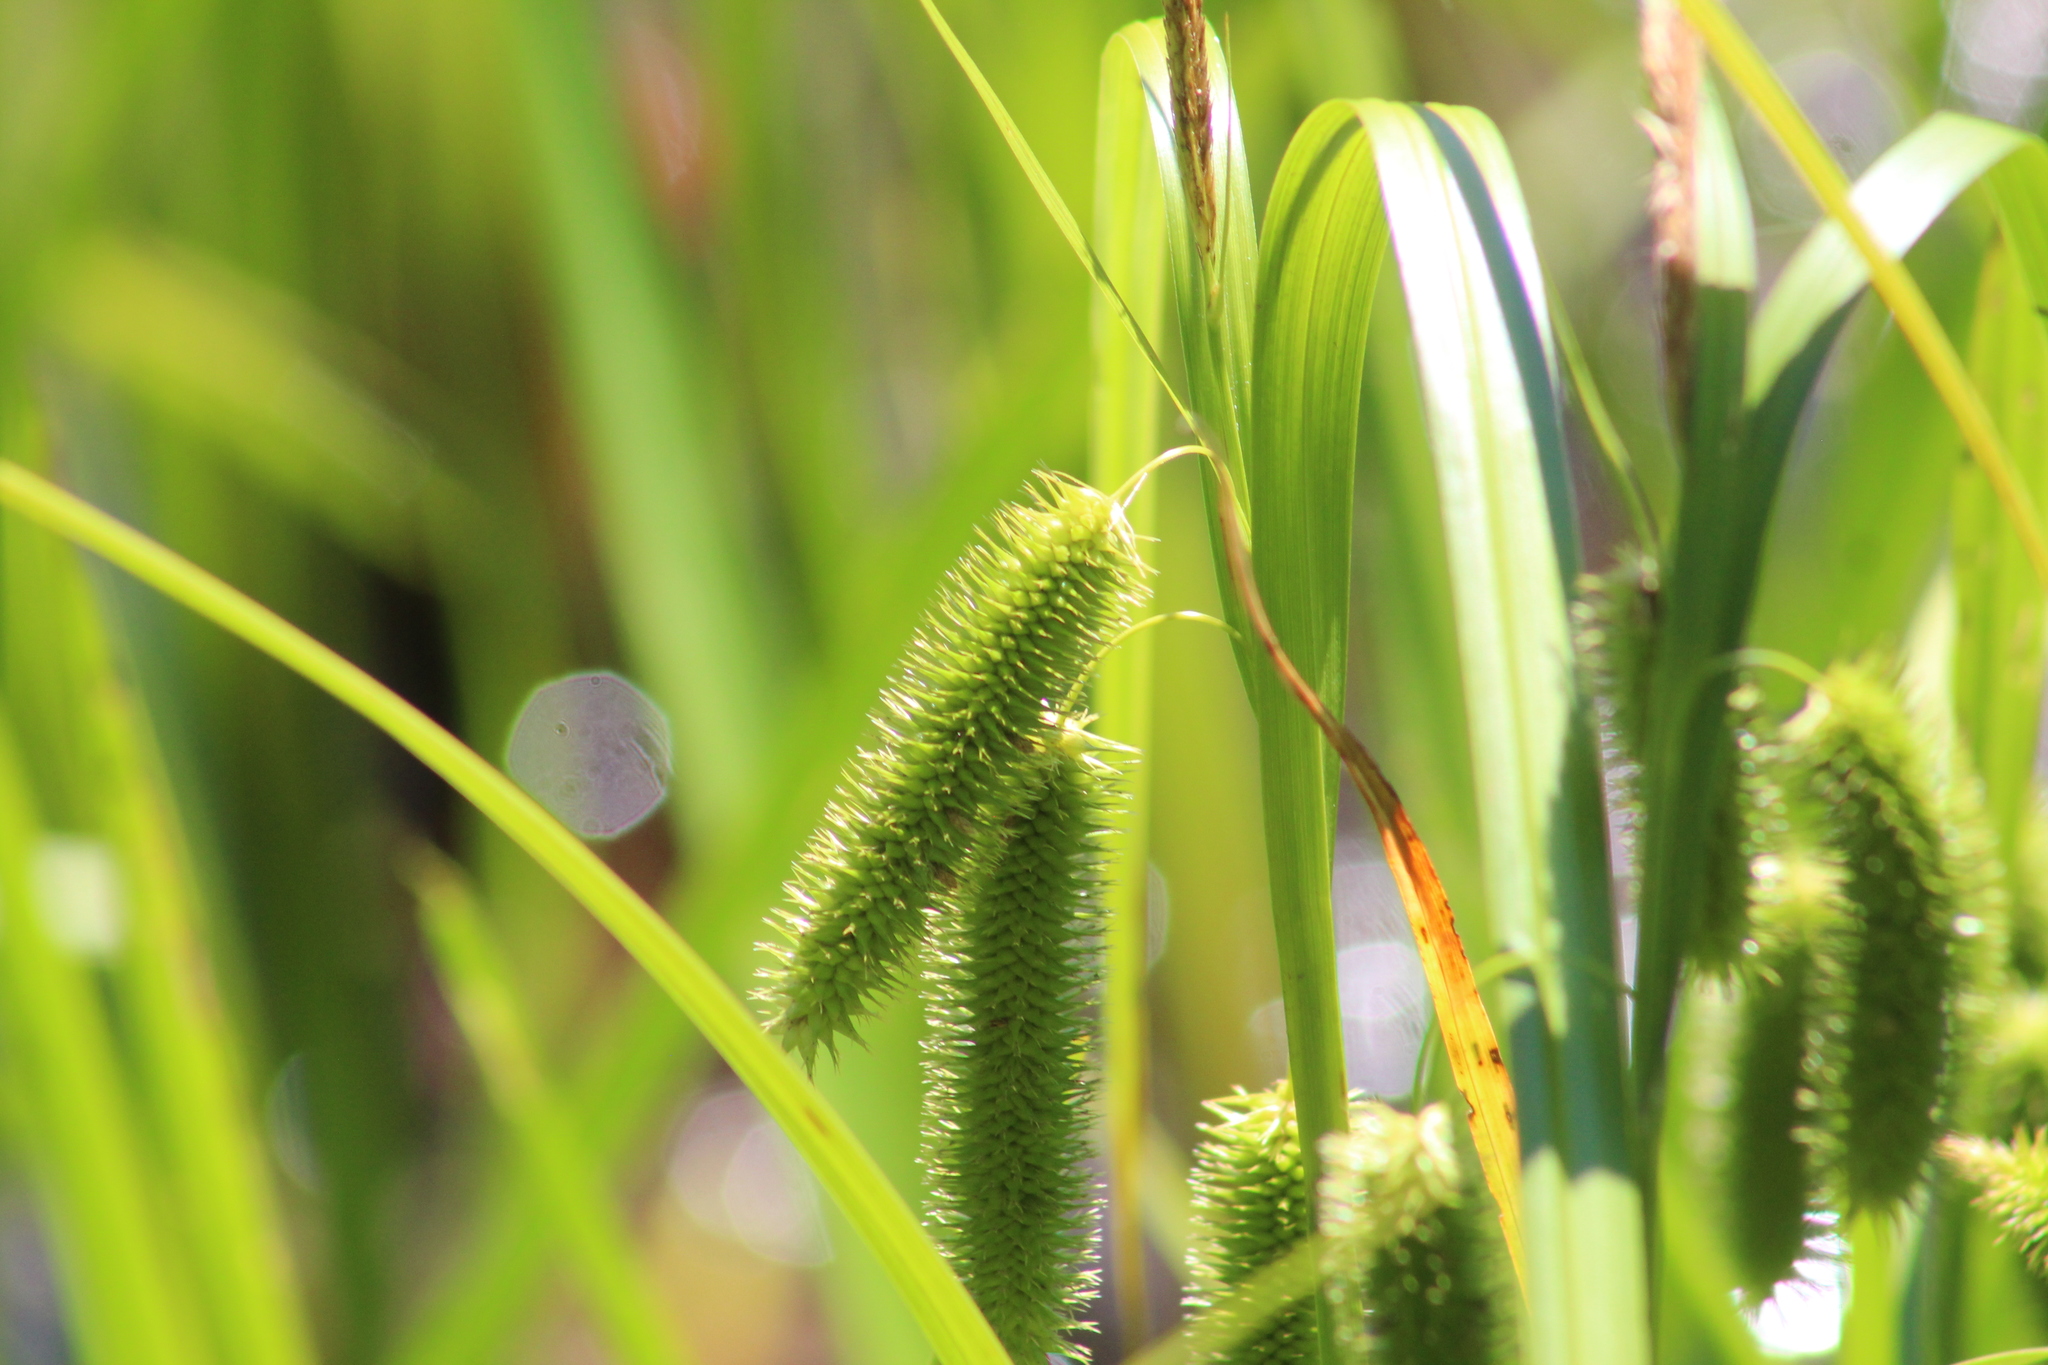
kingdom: Plantae
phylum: Tracheophyta
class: Liliopsida
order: Poales
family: Cyperaceae
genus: Carex
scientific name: Carex comosa
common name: Bristly sedge
